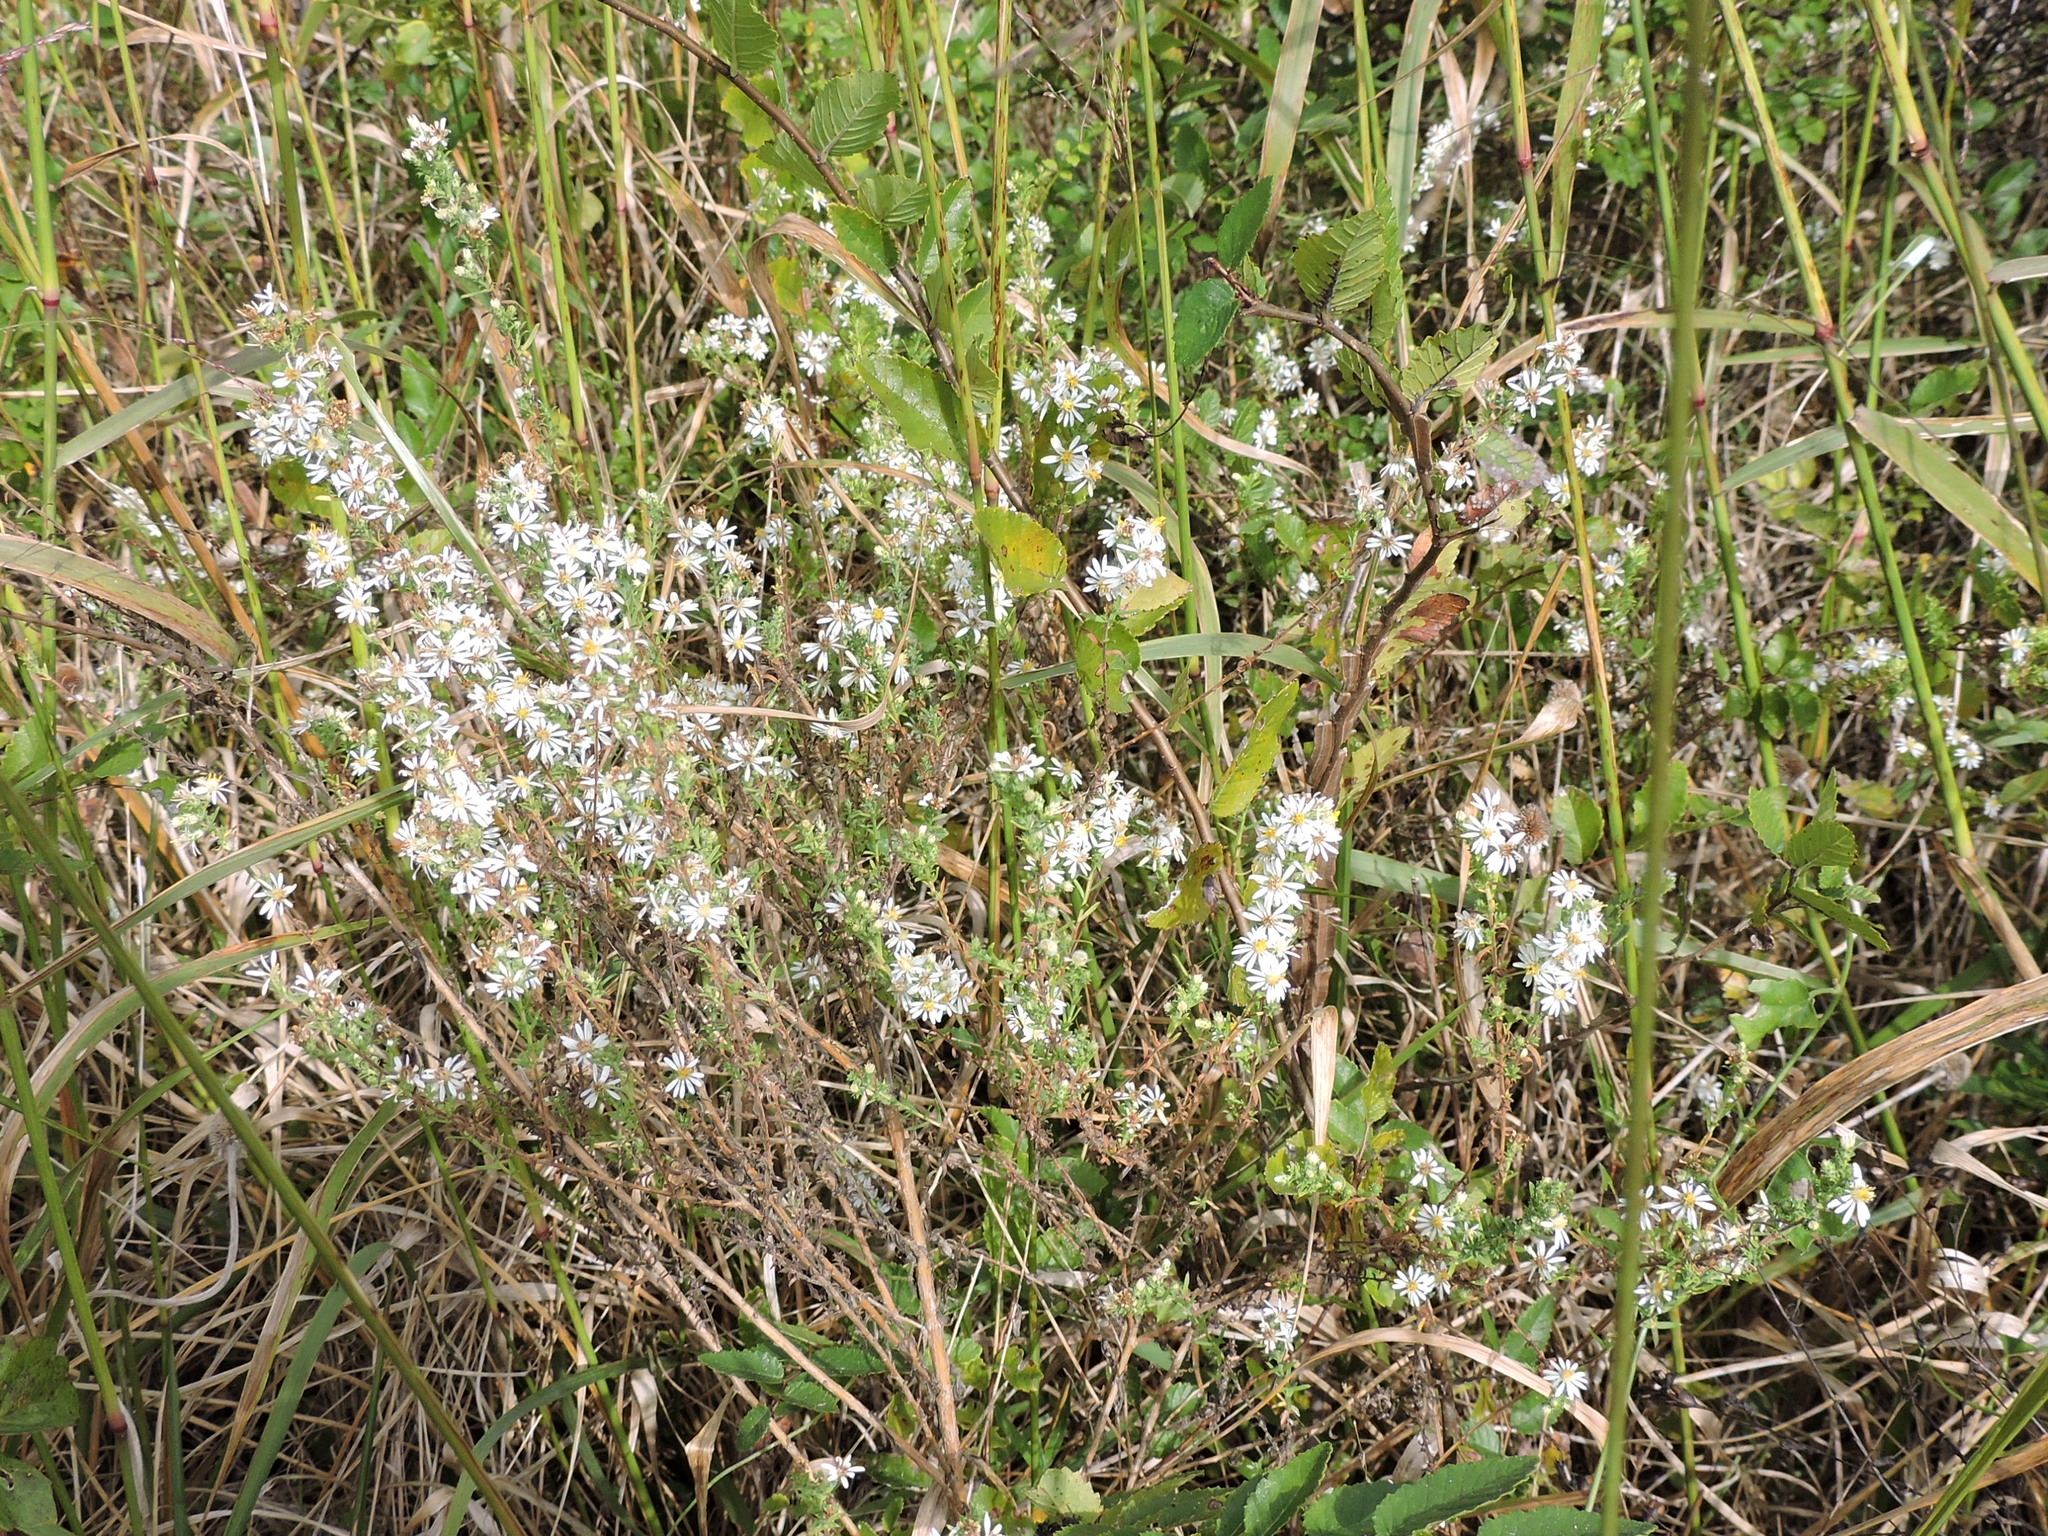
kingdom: Plantae
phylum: Tracheophyta
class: Magnoliopsida
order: Asterales
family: Asteraceae
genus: Symphyotrichum
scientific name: Symphyotrichum ericoides
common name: Heath aster
